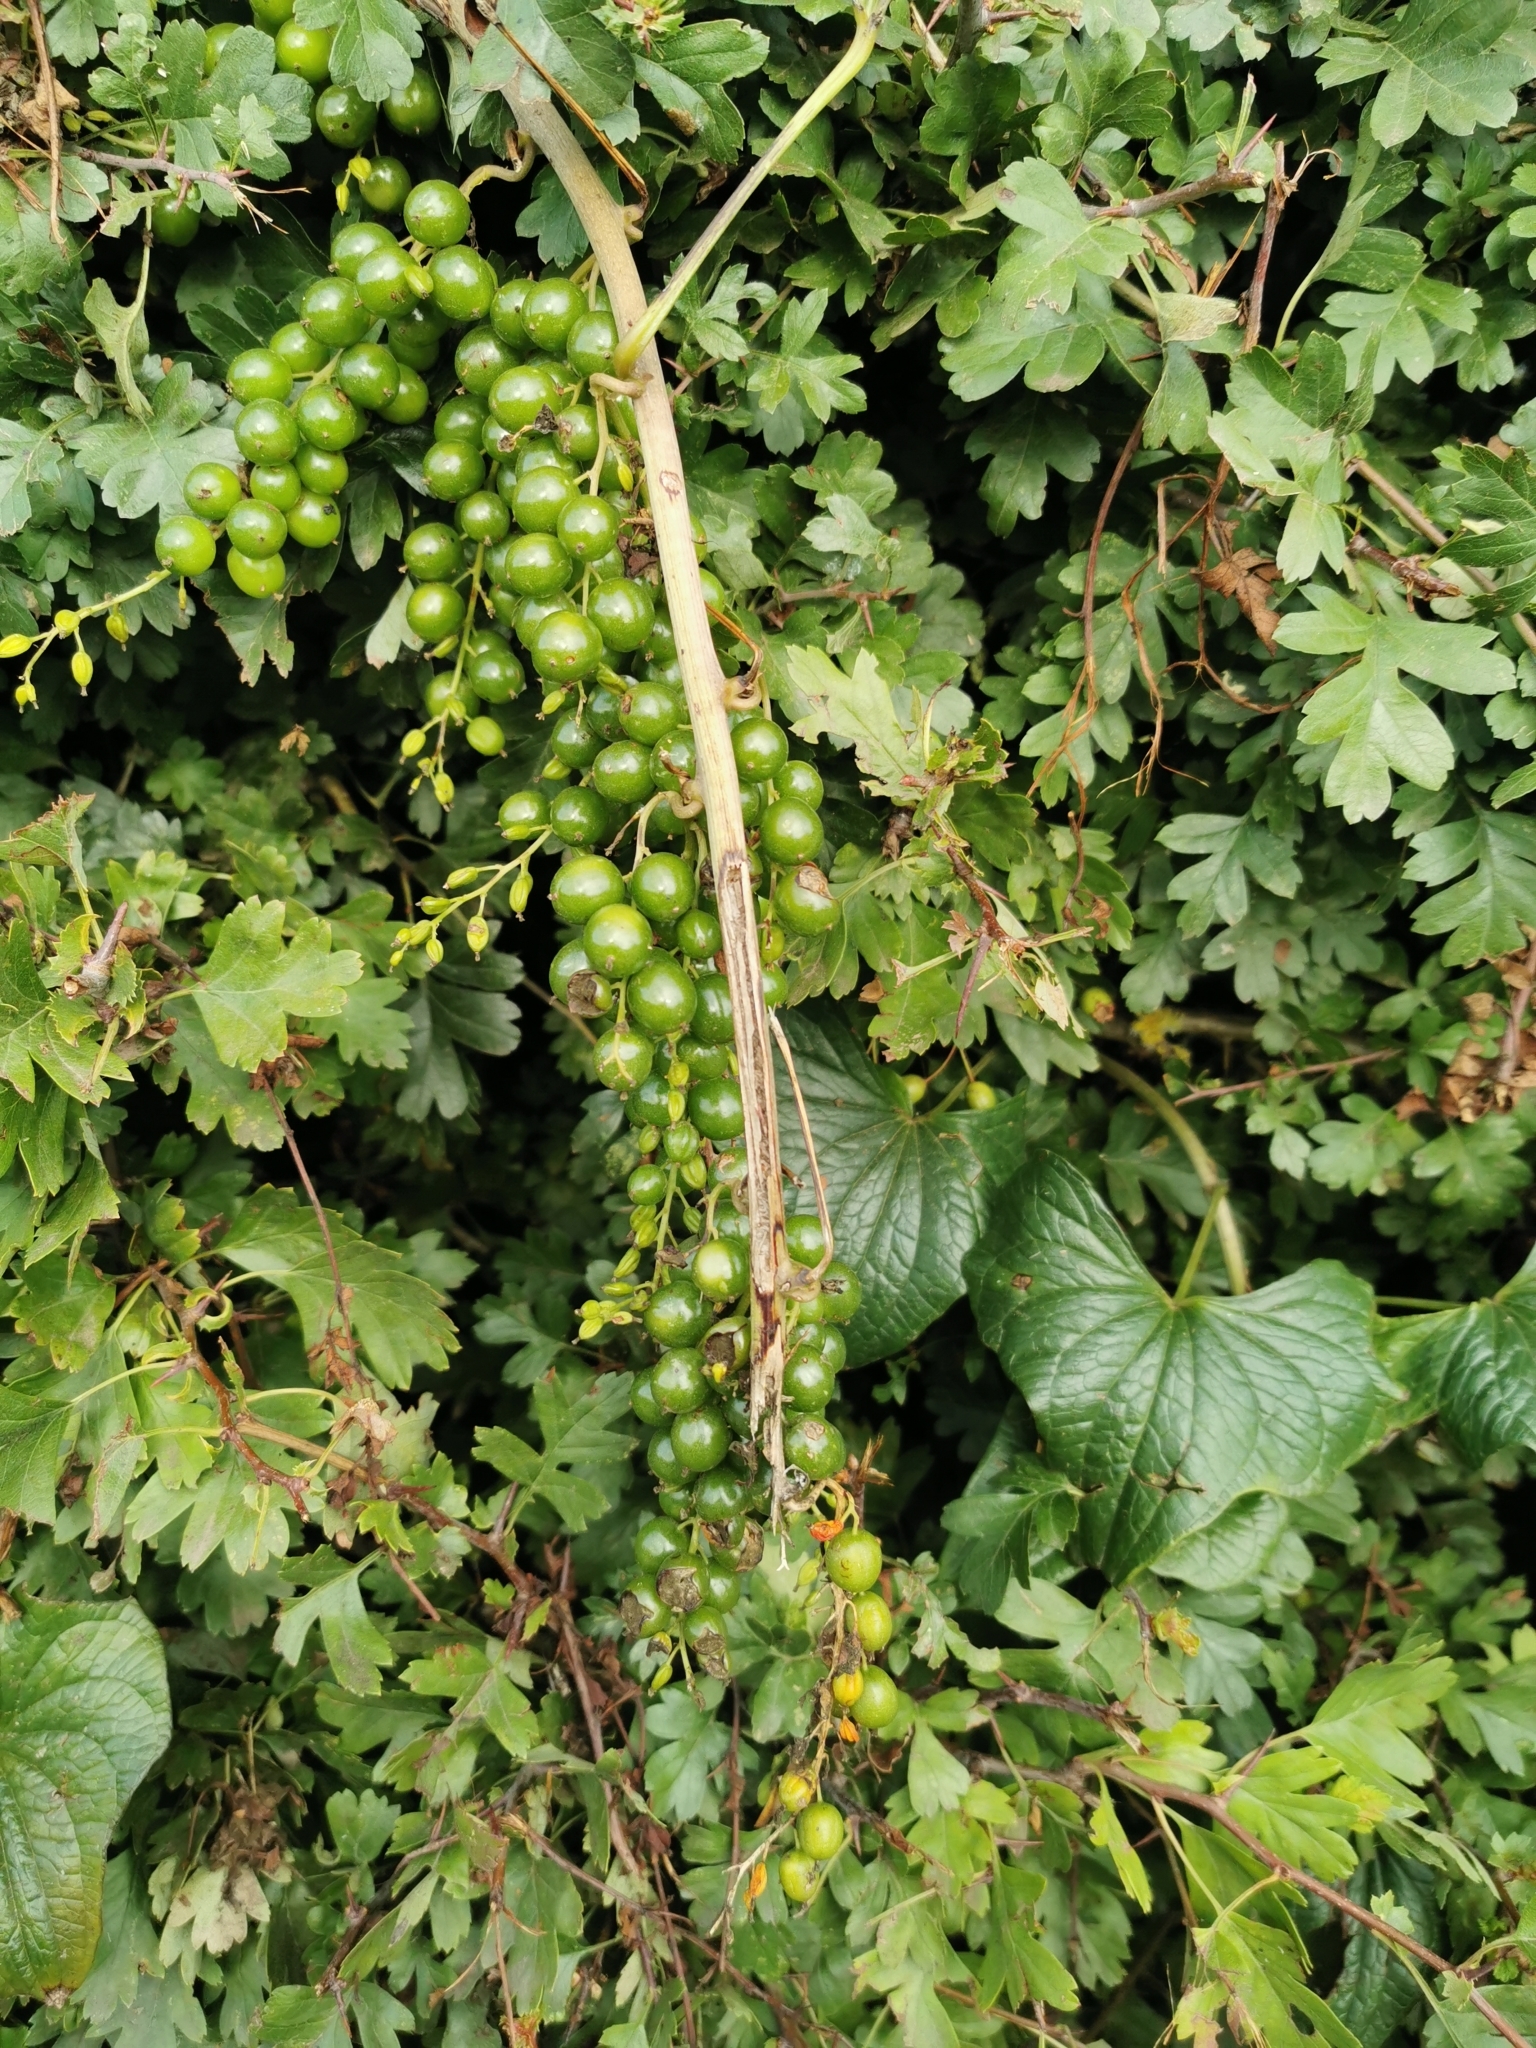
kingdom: Plantae
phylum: Tracheophyta
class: Liliopsida
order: Dioscoreales
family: Dioscoreaceae
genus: Dioscorea
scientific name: Dioscorea communis
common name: Black-bindweed
